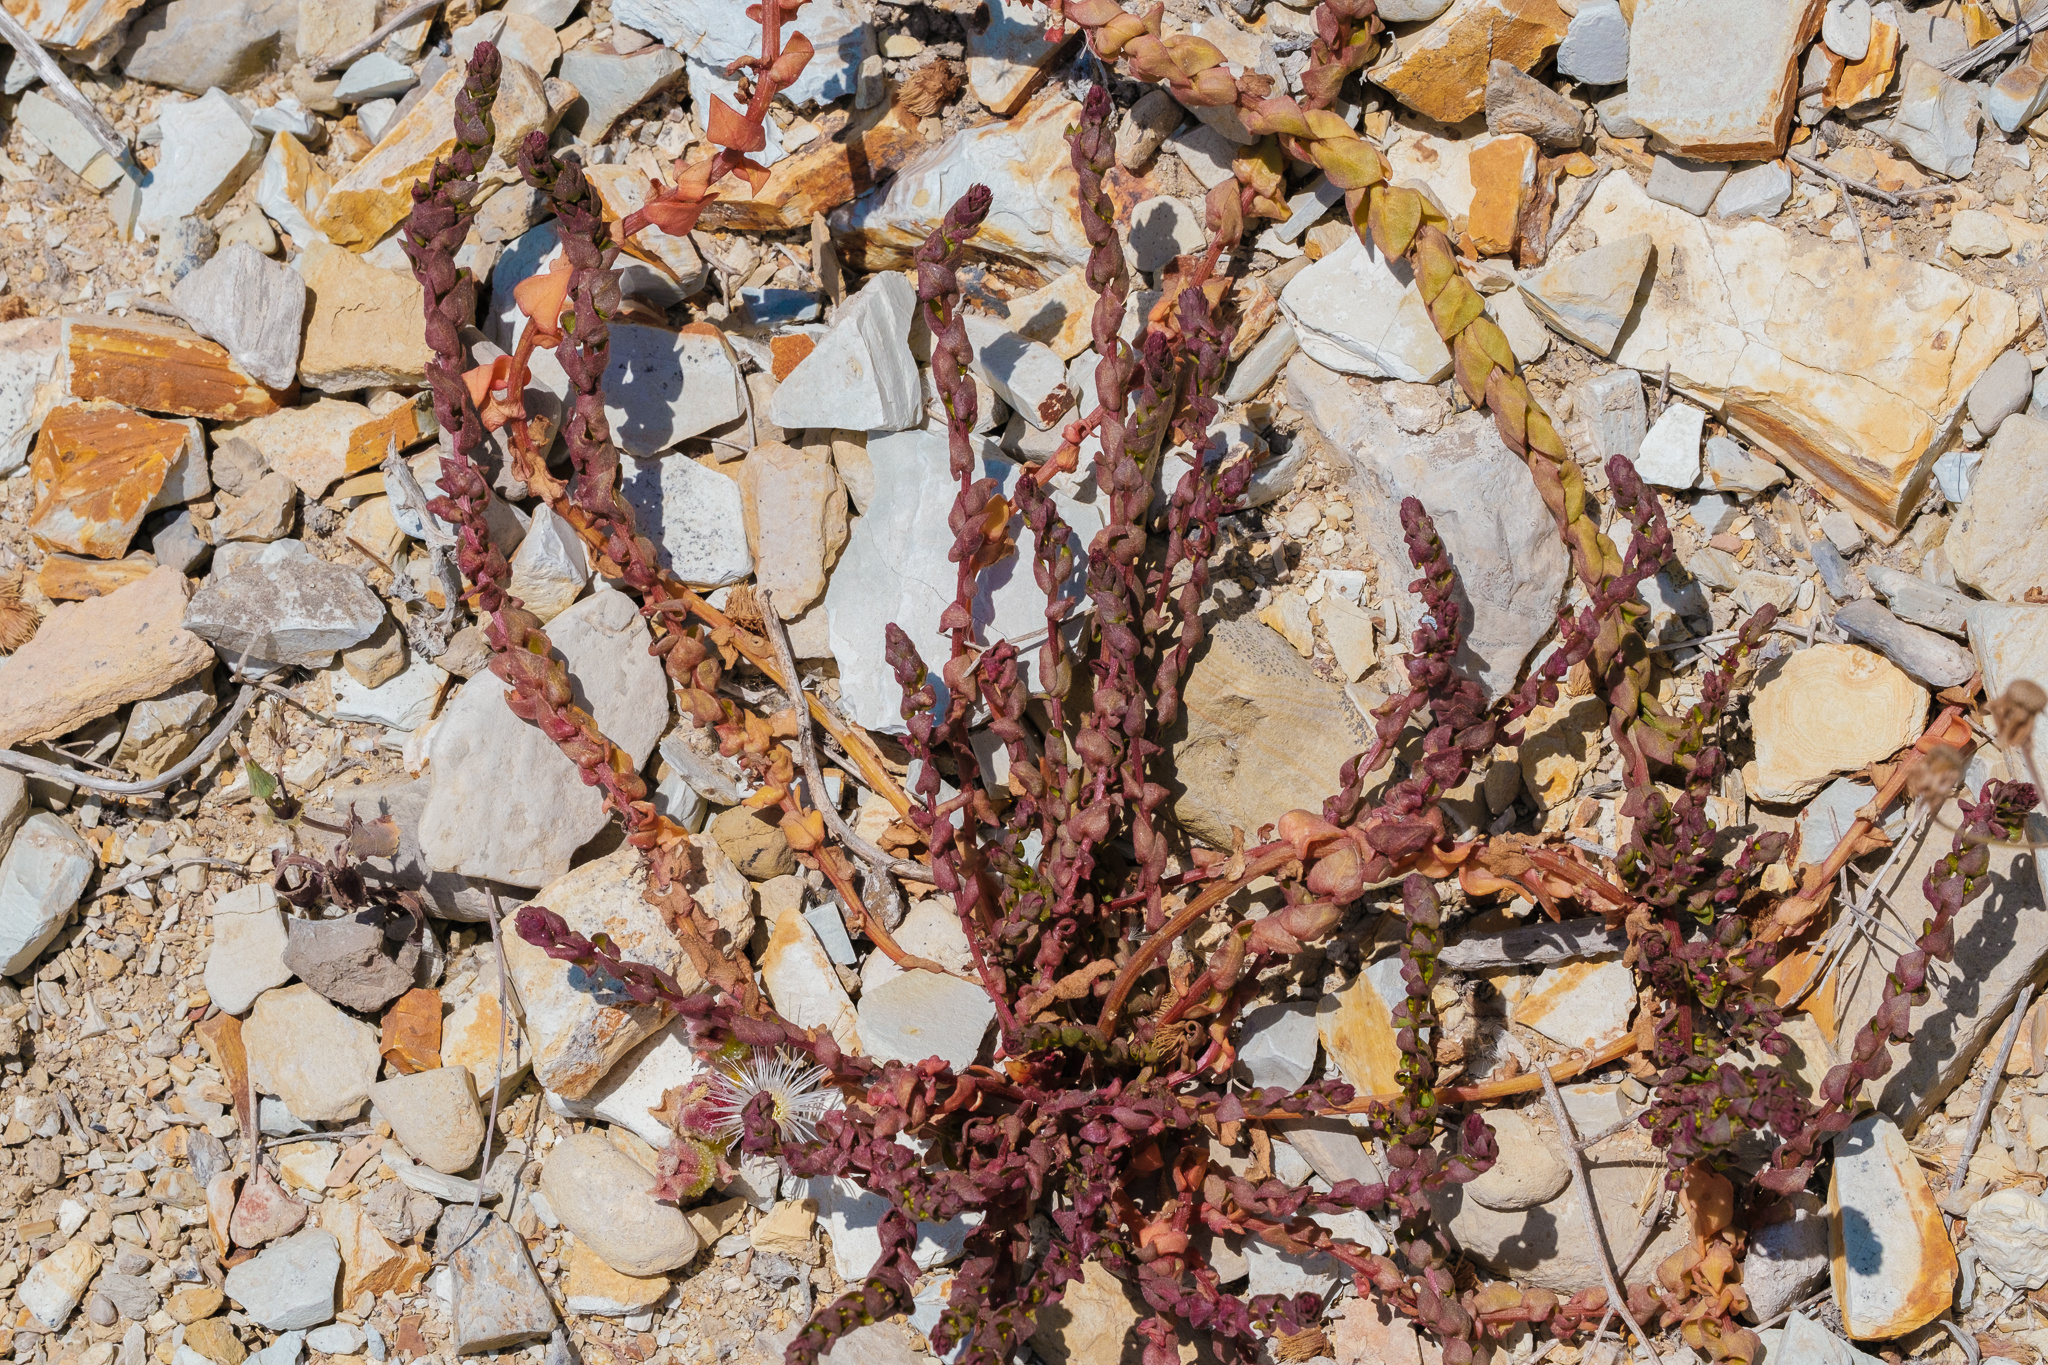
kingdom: Plantae
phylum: Tracheophyta
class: Magnoliopsida
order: Caryophyllales
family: Amaranthaceae
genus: Aphanisma
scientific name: Aphanisma blitoides
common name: Aphanisma
